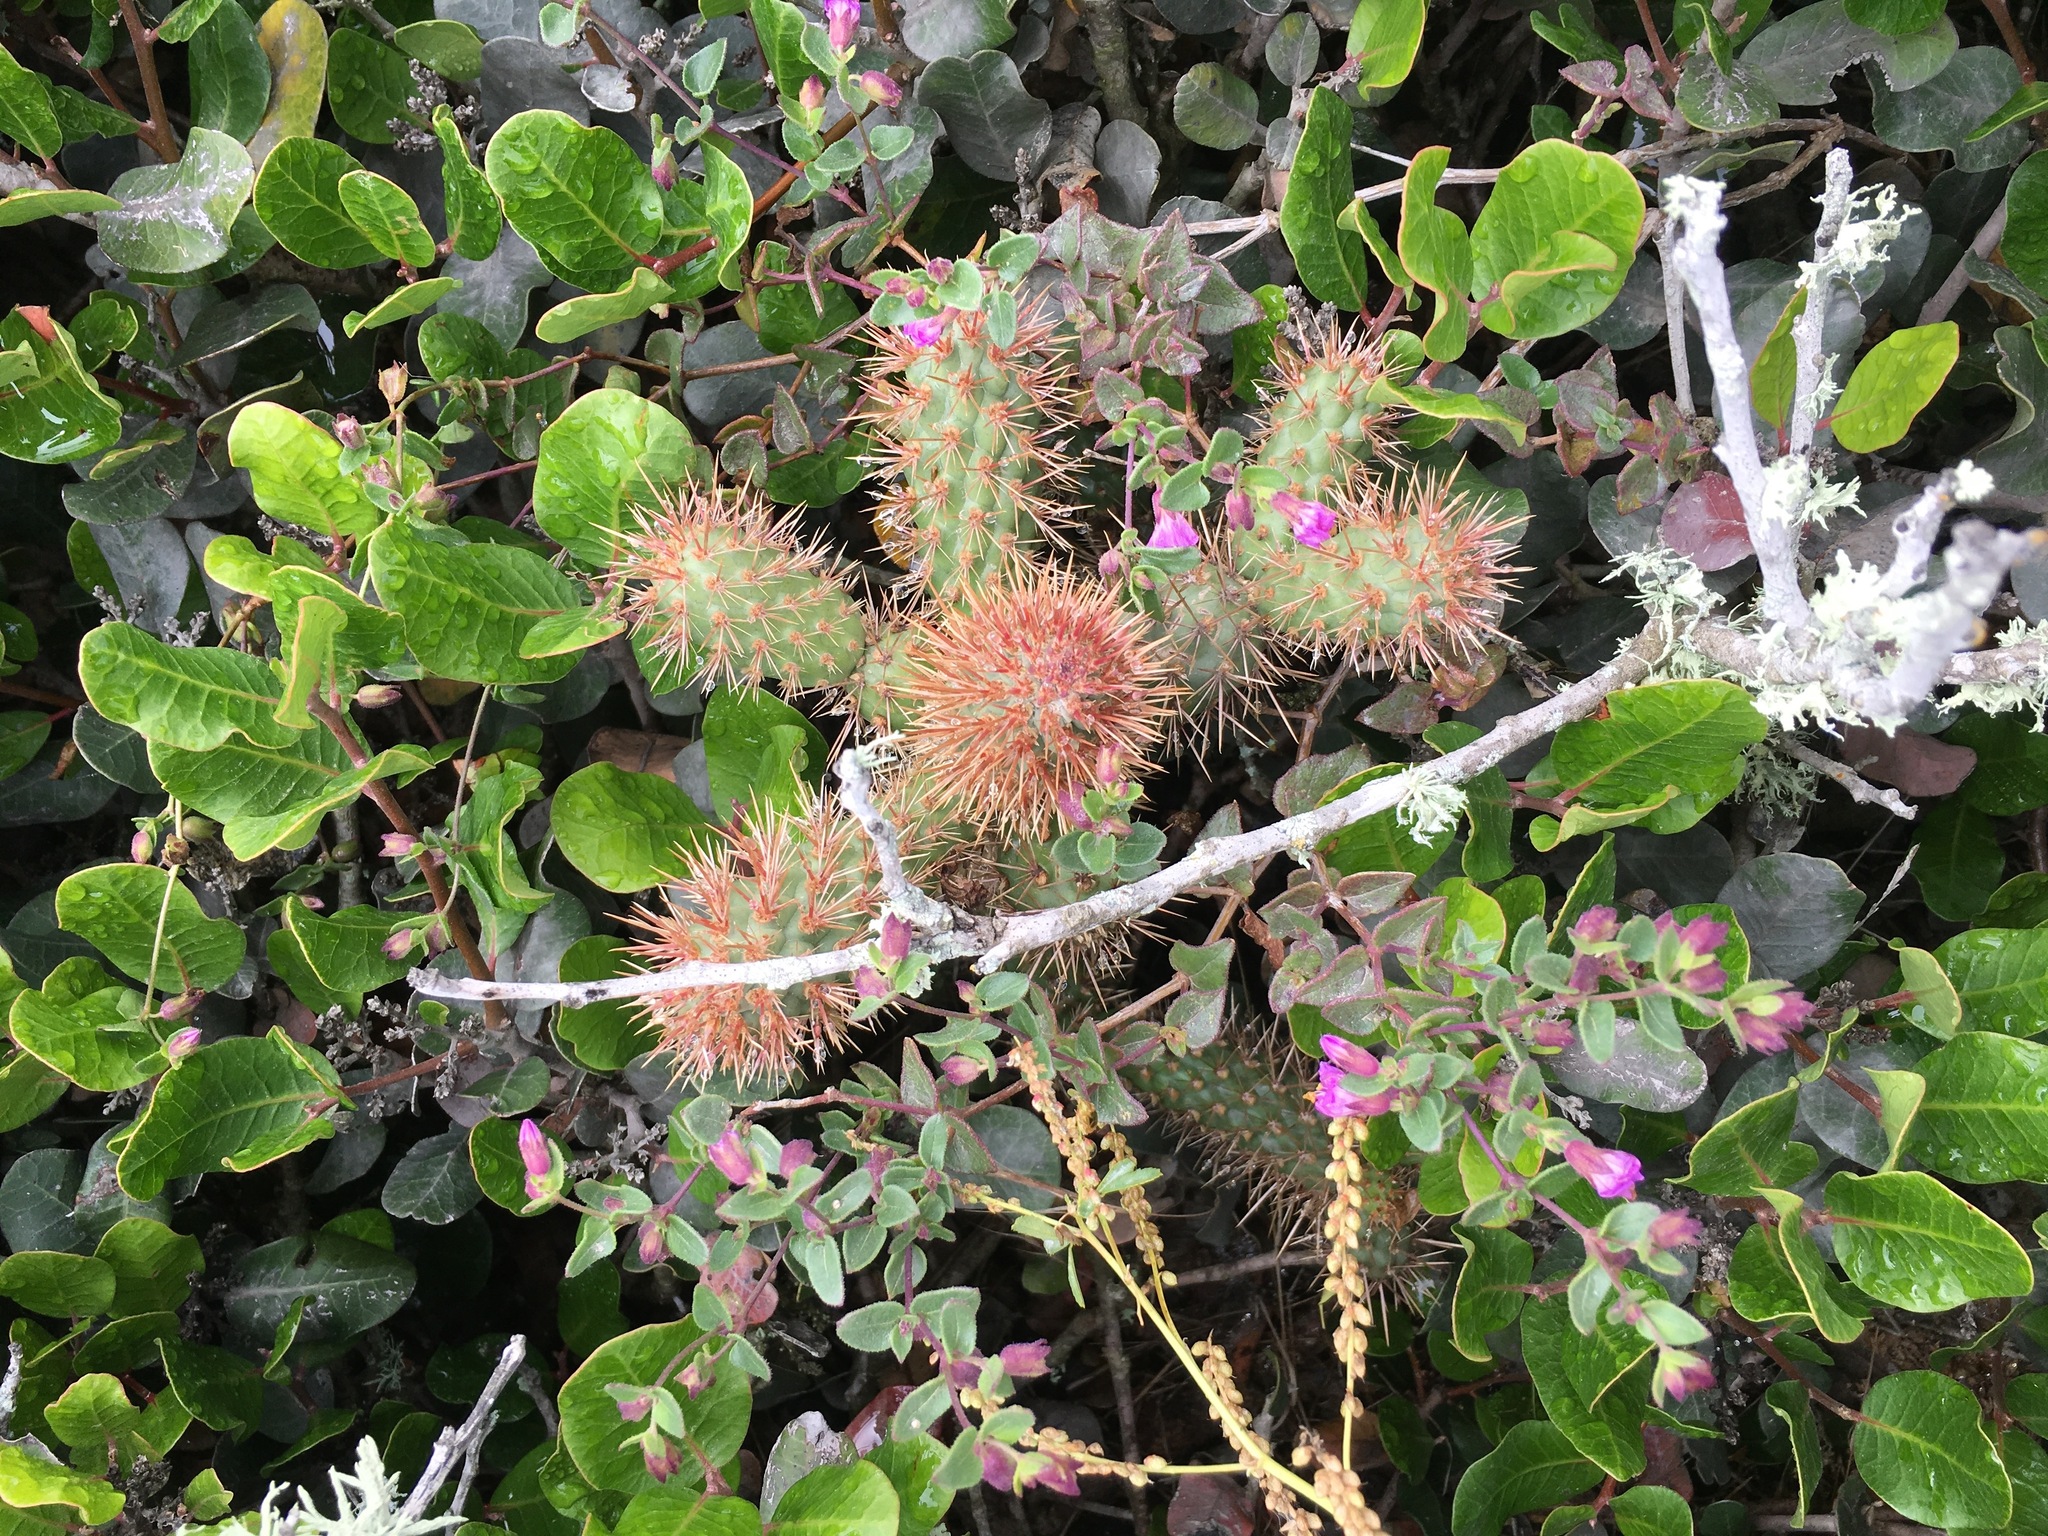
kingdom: Plantae
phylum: Tracheophyta
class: Magnoliopsida
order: Caryophyllales
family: Cactaceae
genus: Cylindropuntia
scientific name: Cylindropuntia prolifera
